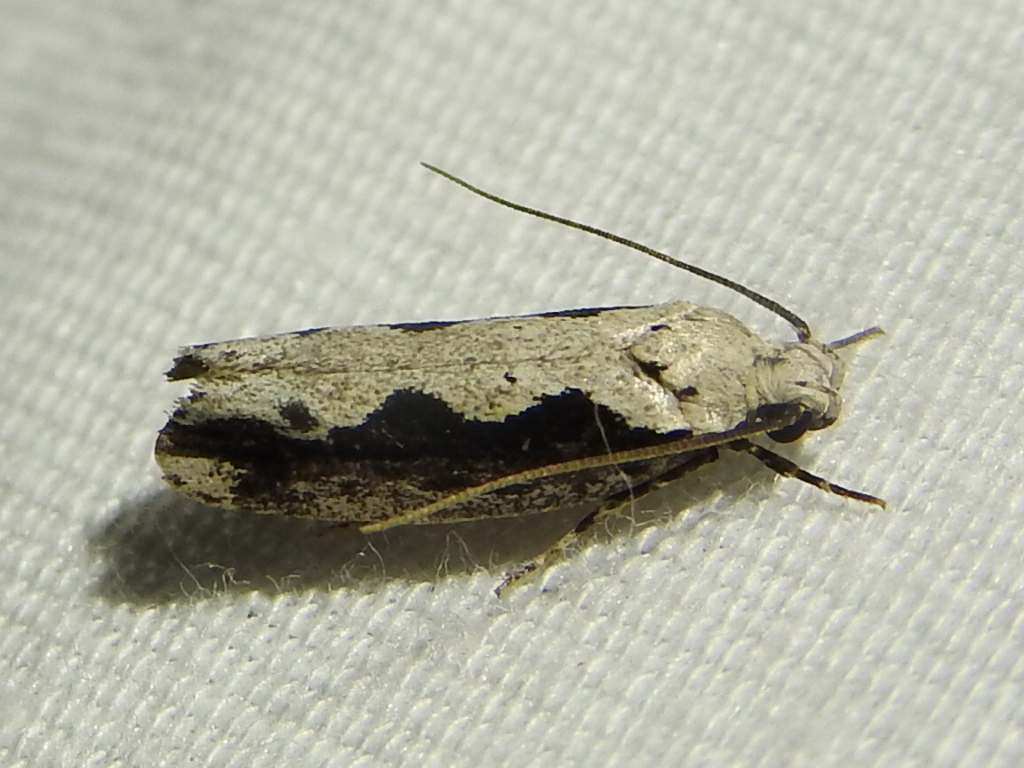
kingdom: Animalia
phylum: Arthropoda
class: Insecta
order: Lepidoptera
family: Ethmiidae
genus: Ethmia
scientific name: Ethmia semiombra
